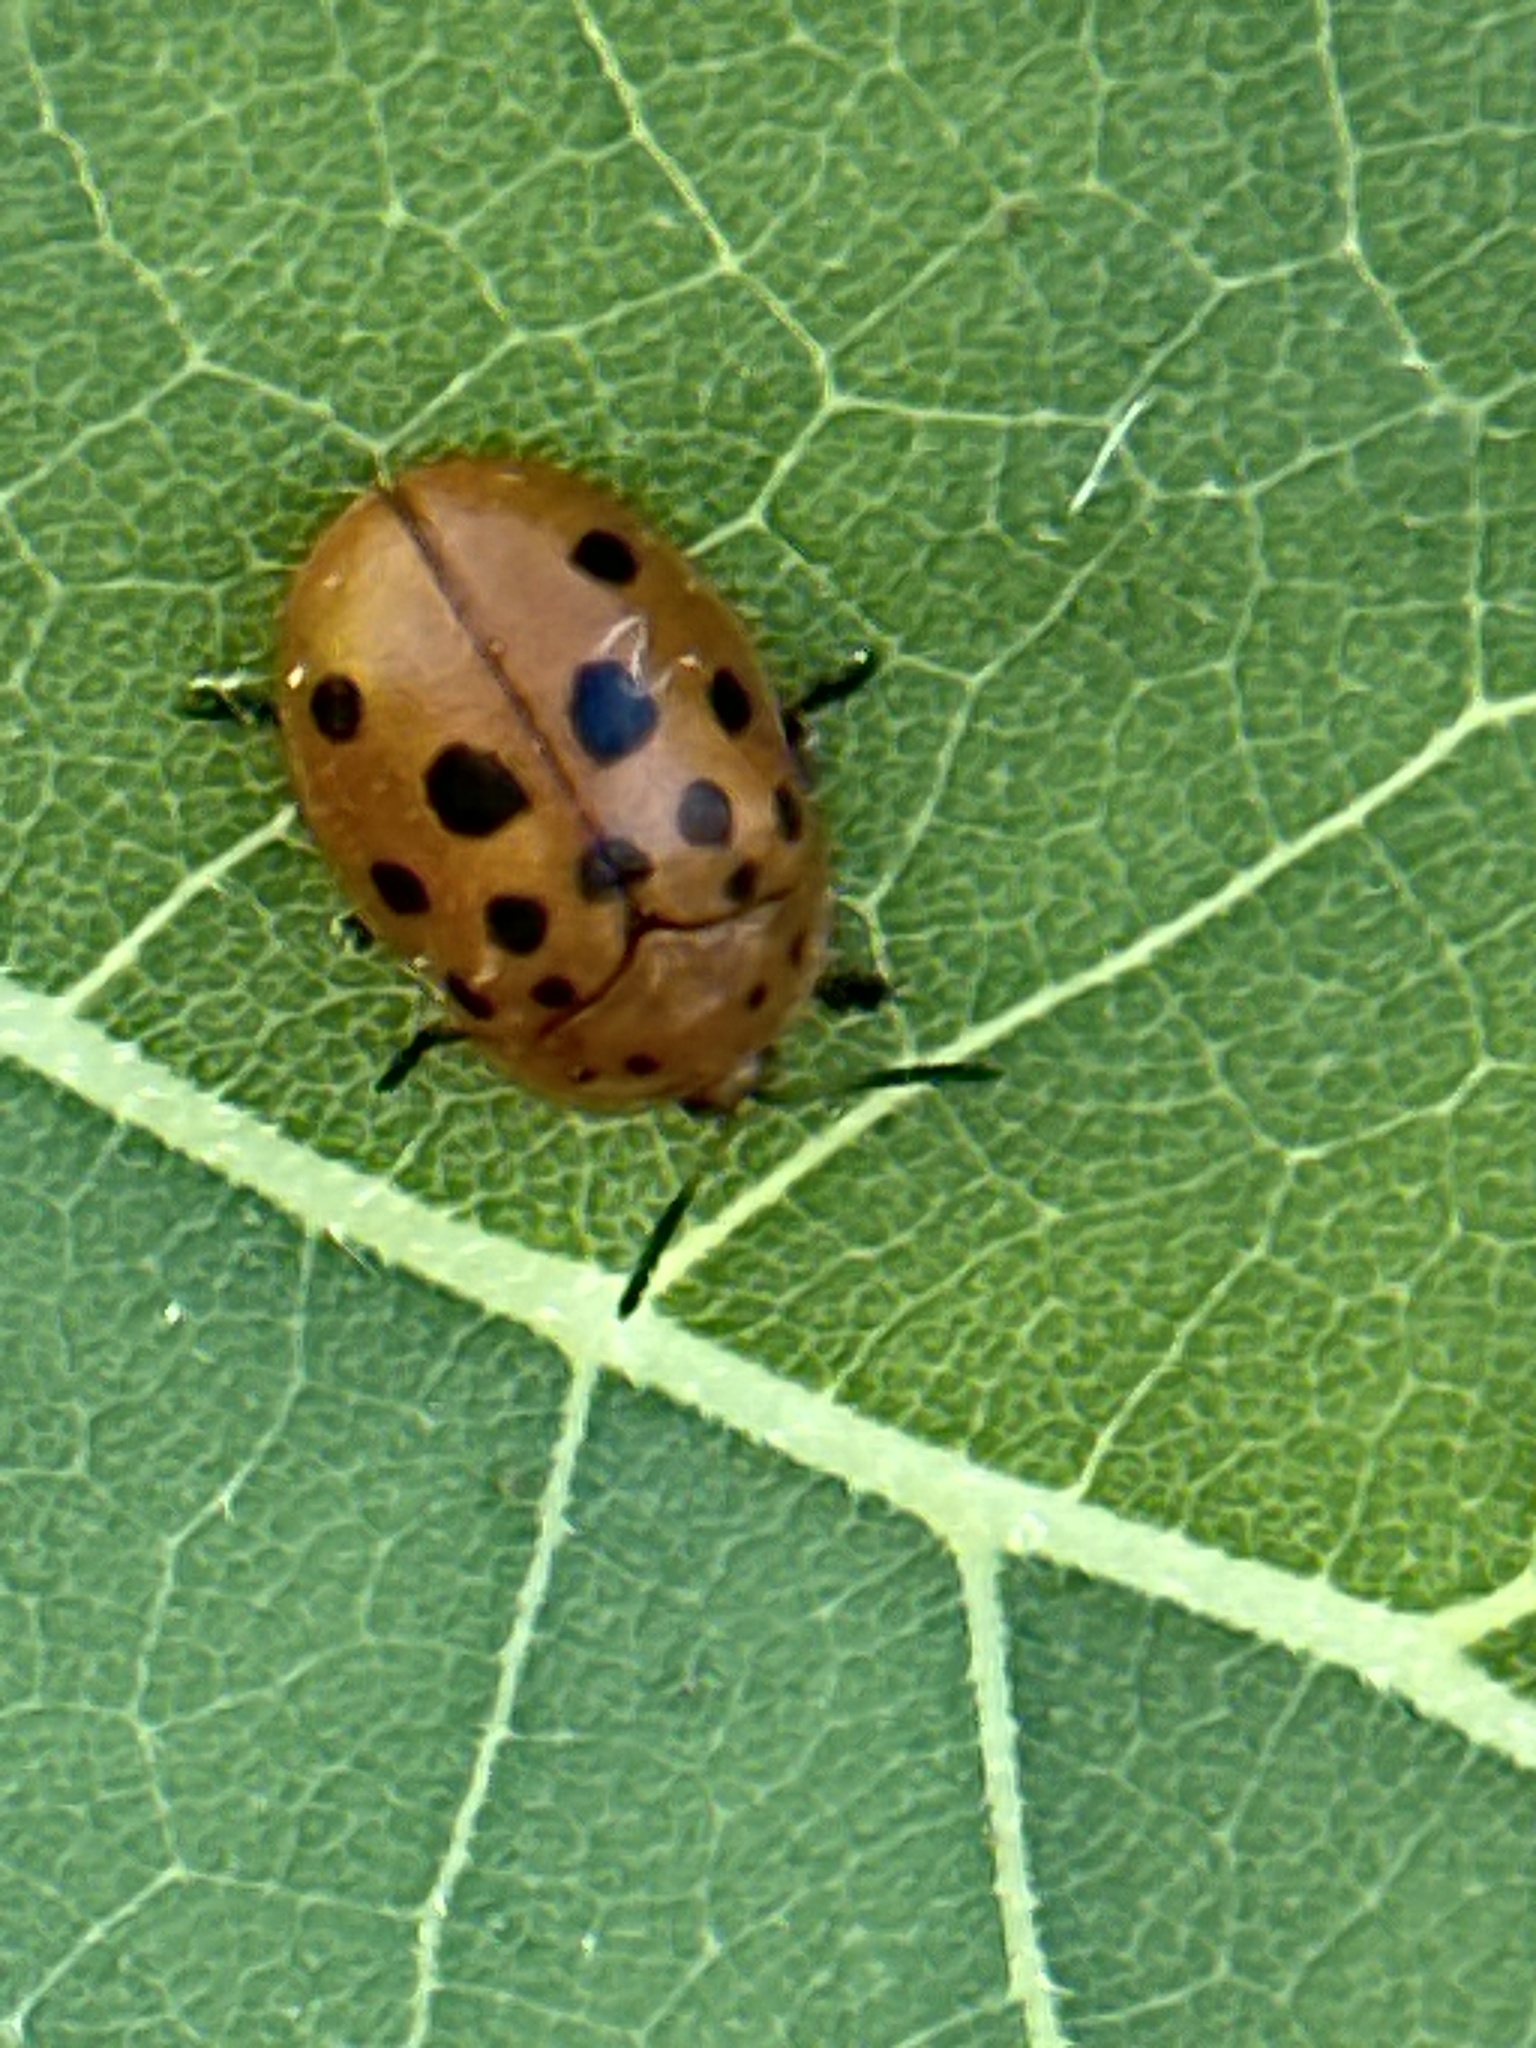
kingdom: Animalia
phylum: Arthropoda
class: Insecta
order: Coleoptera
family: Chrysomelidae
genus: Chelymorpha
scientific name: Chelymorpha cassidea
